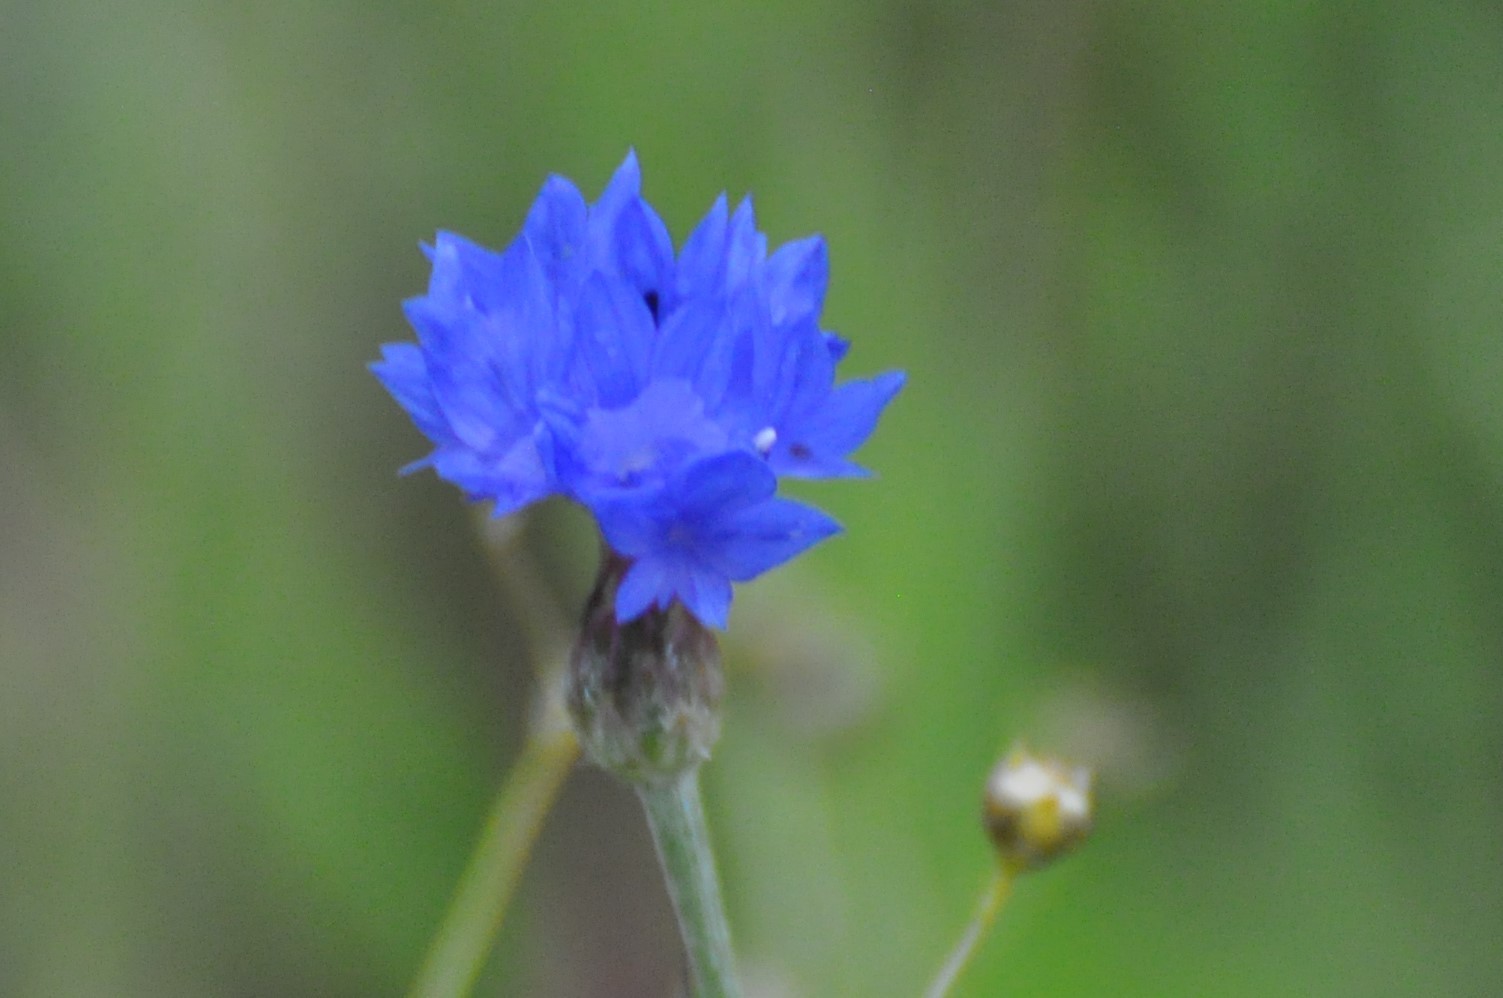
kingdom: Plantae
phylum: Tracheophyta
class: Magnoliopsida
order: Asterales
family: Asteraceae
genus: Centaurea
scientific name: Centaurea cyanus
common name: Cornflower
